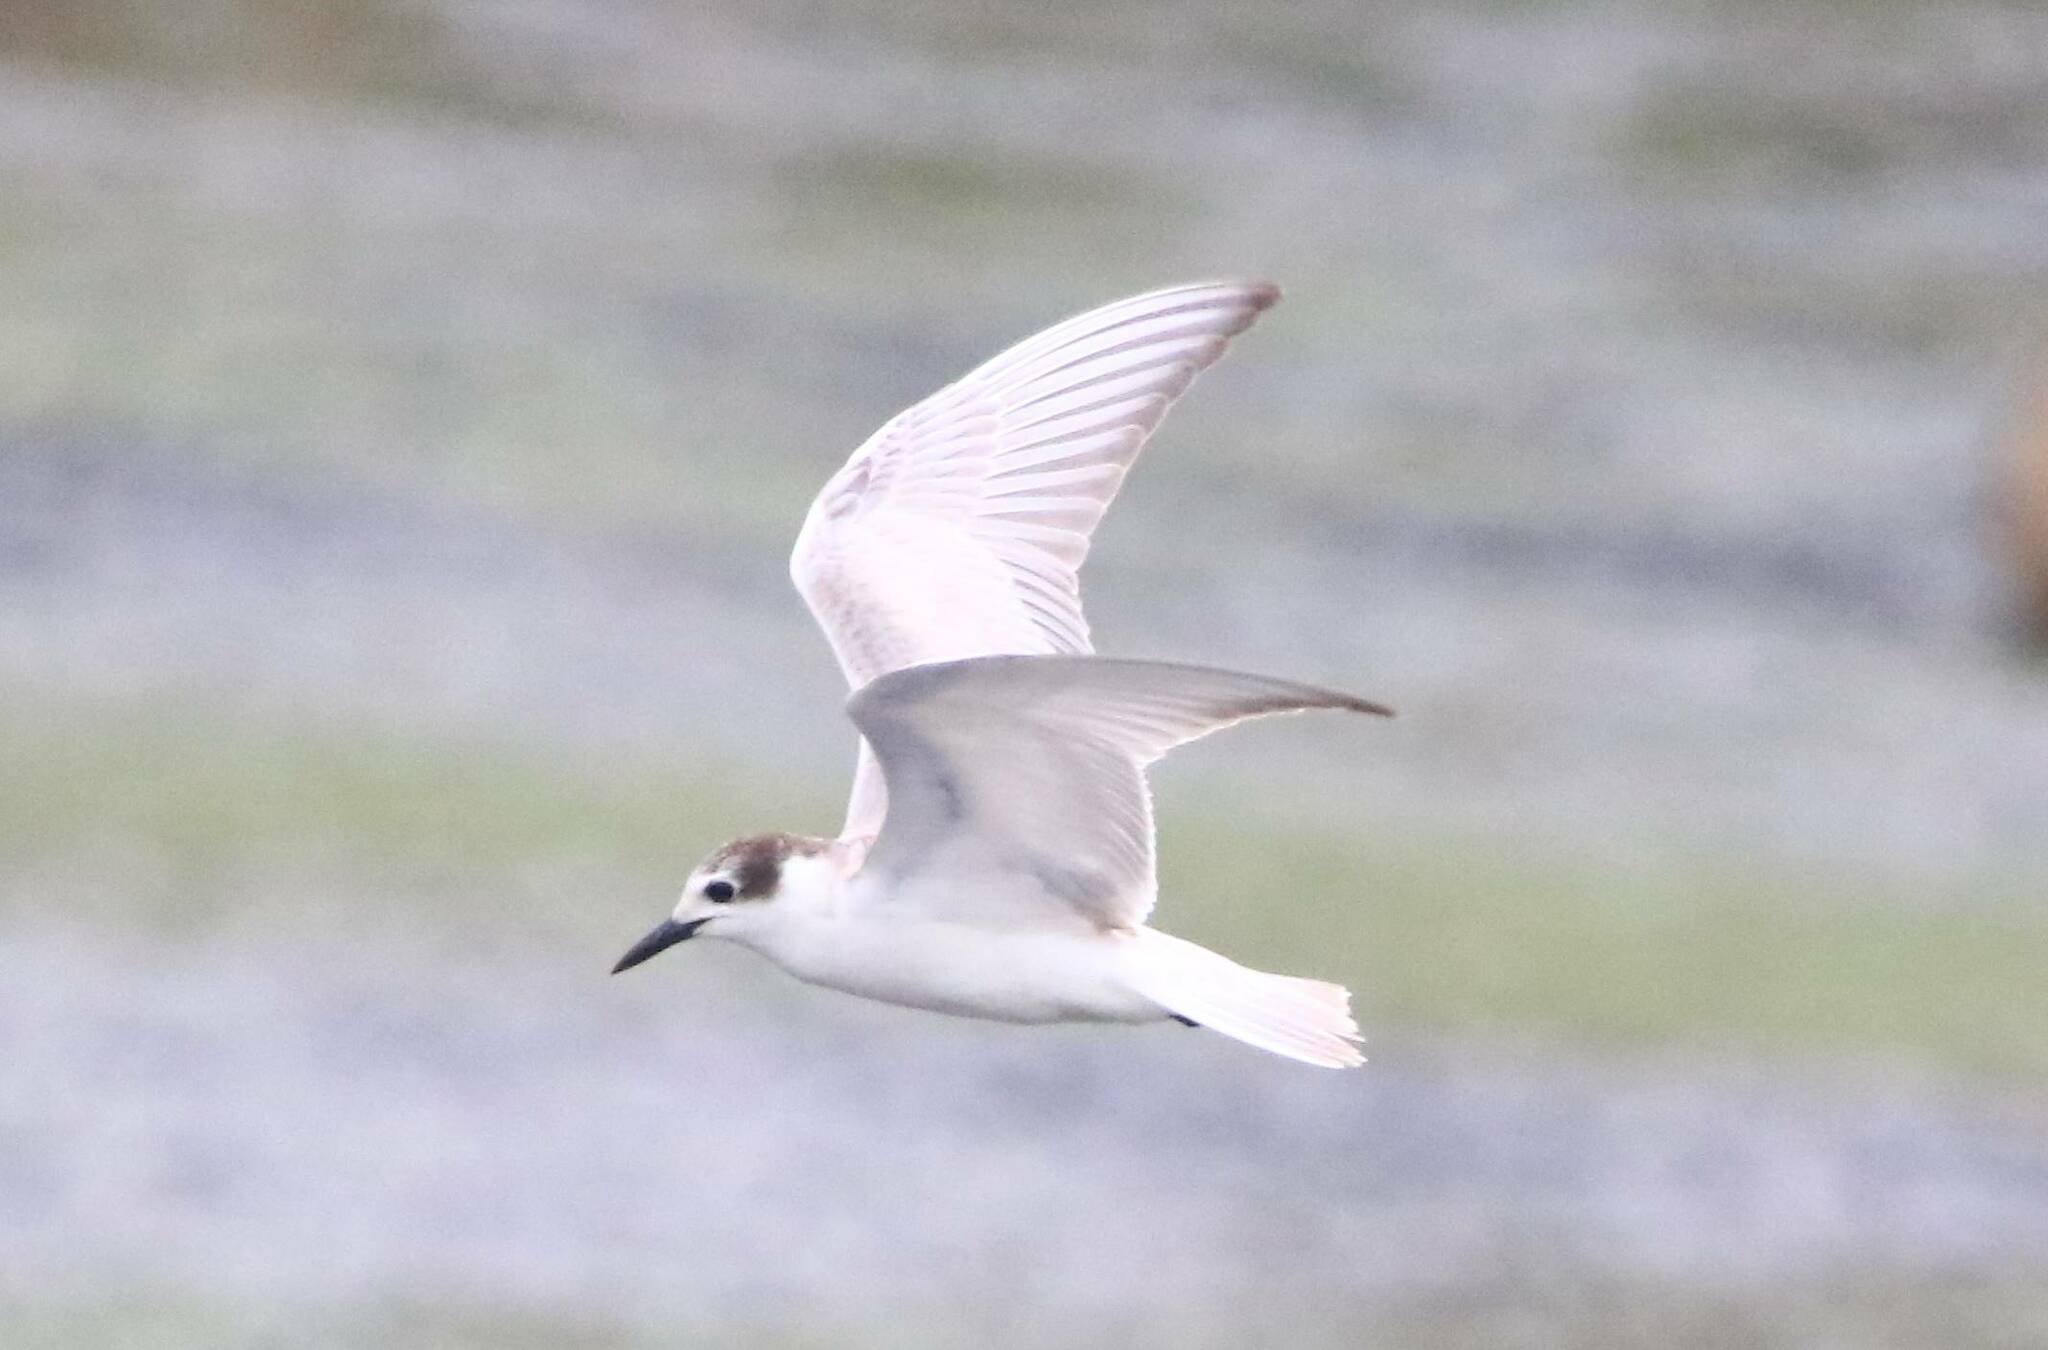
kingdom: Animalia
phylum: Chordata
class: Aves
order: Charadriiformes
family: Laridae
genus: Chlidonias
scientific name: Chlidonias hybrida
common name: Whiskered tern
